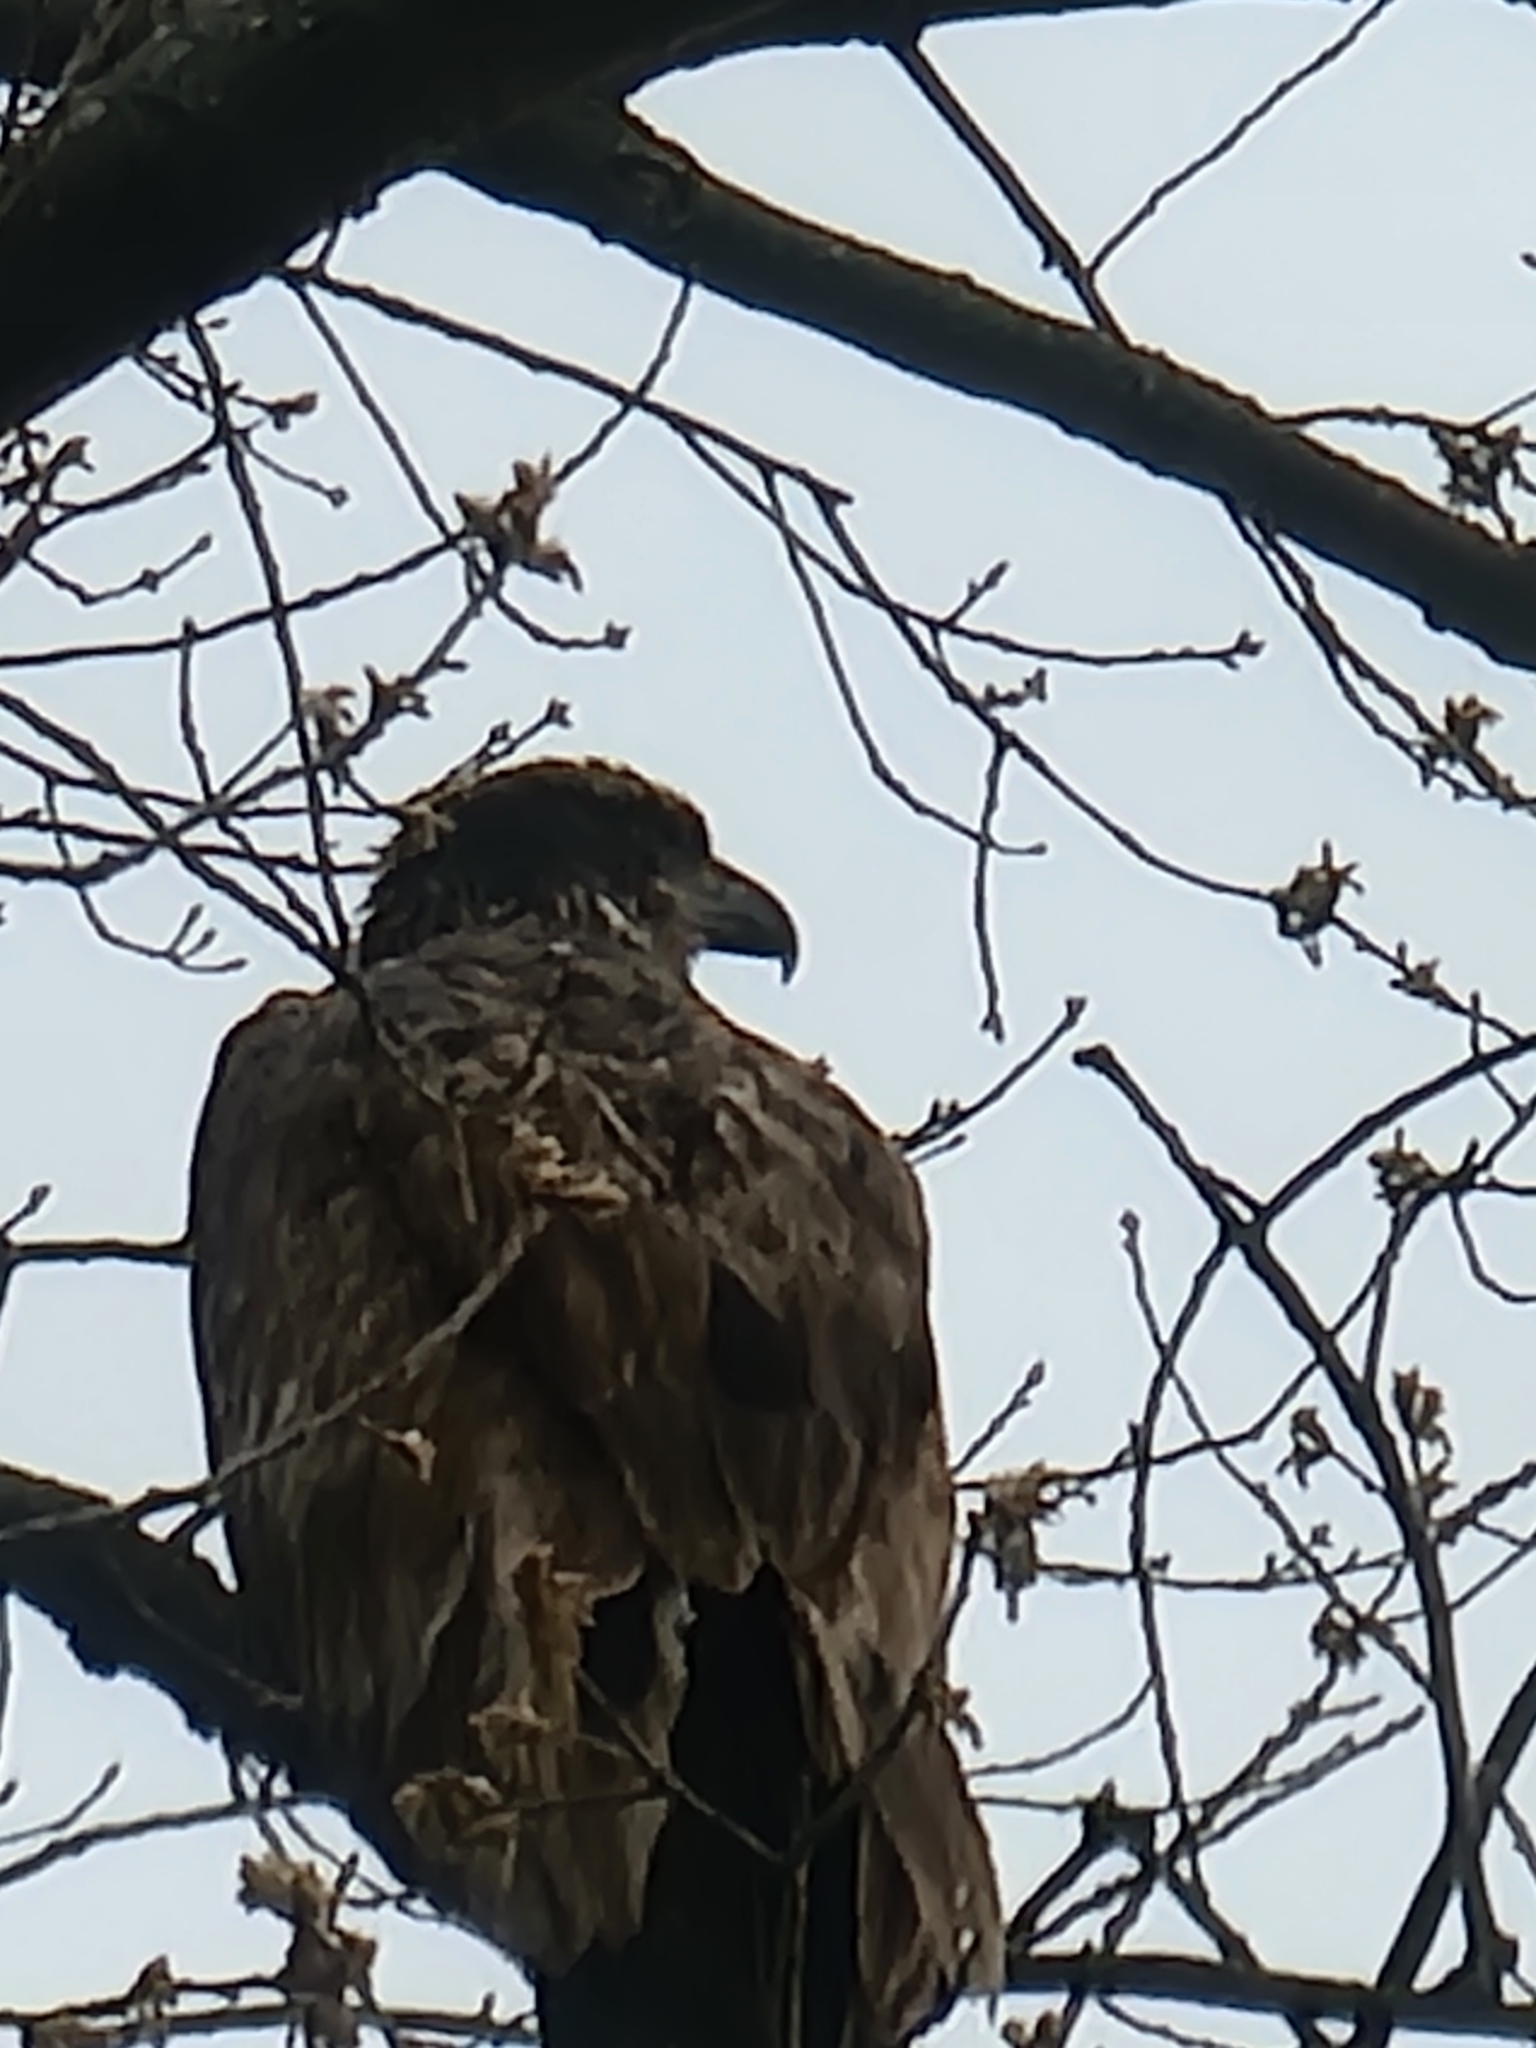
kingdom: Animalia
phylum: Chordata
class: Aves
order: Accipitriformes
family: Accipitridae
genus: Haliaeetus
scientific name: Haliaeetus leucocephalus
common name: Bald eagle
